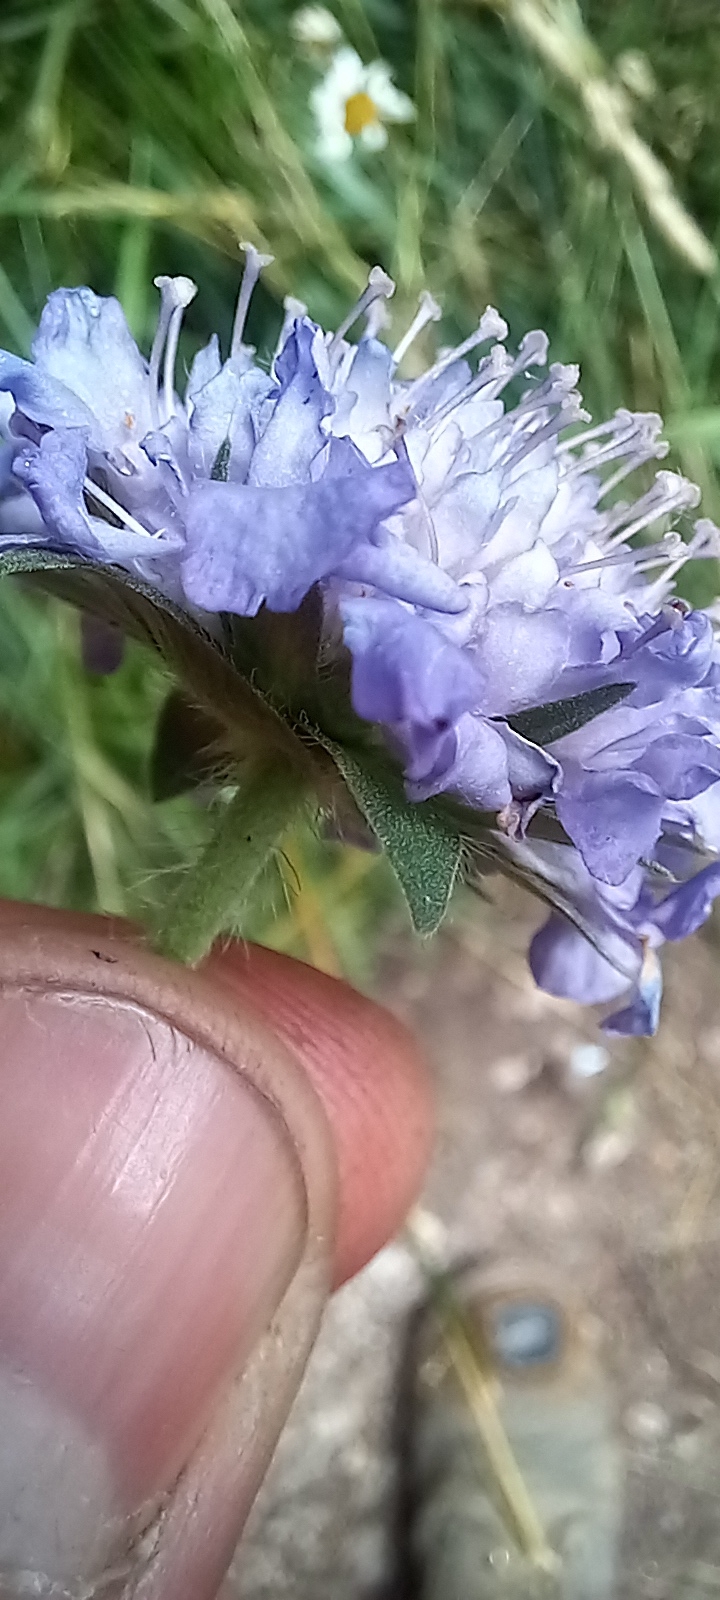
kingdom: Plantae
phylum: Tracheophyta
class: Magnoliopsida
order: Dipsacales
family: Caprifoliaceae
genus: Knautia
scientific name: Knautia arvensis
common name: Field scabiosa
